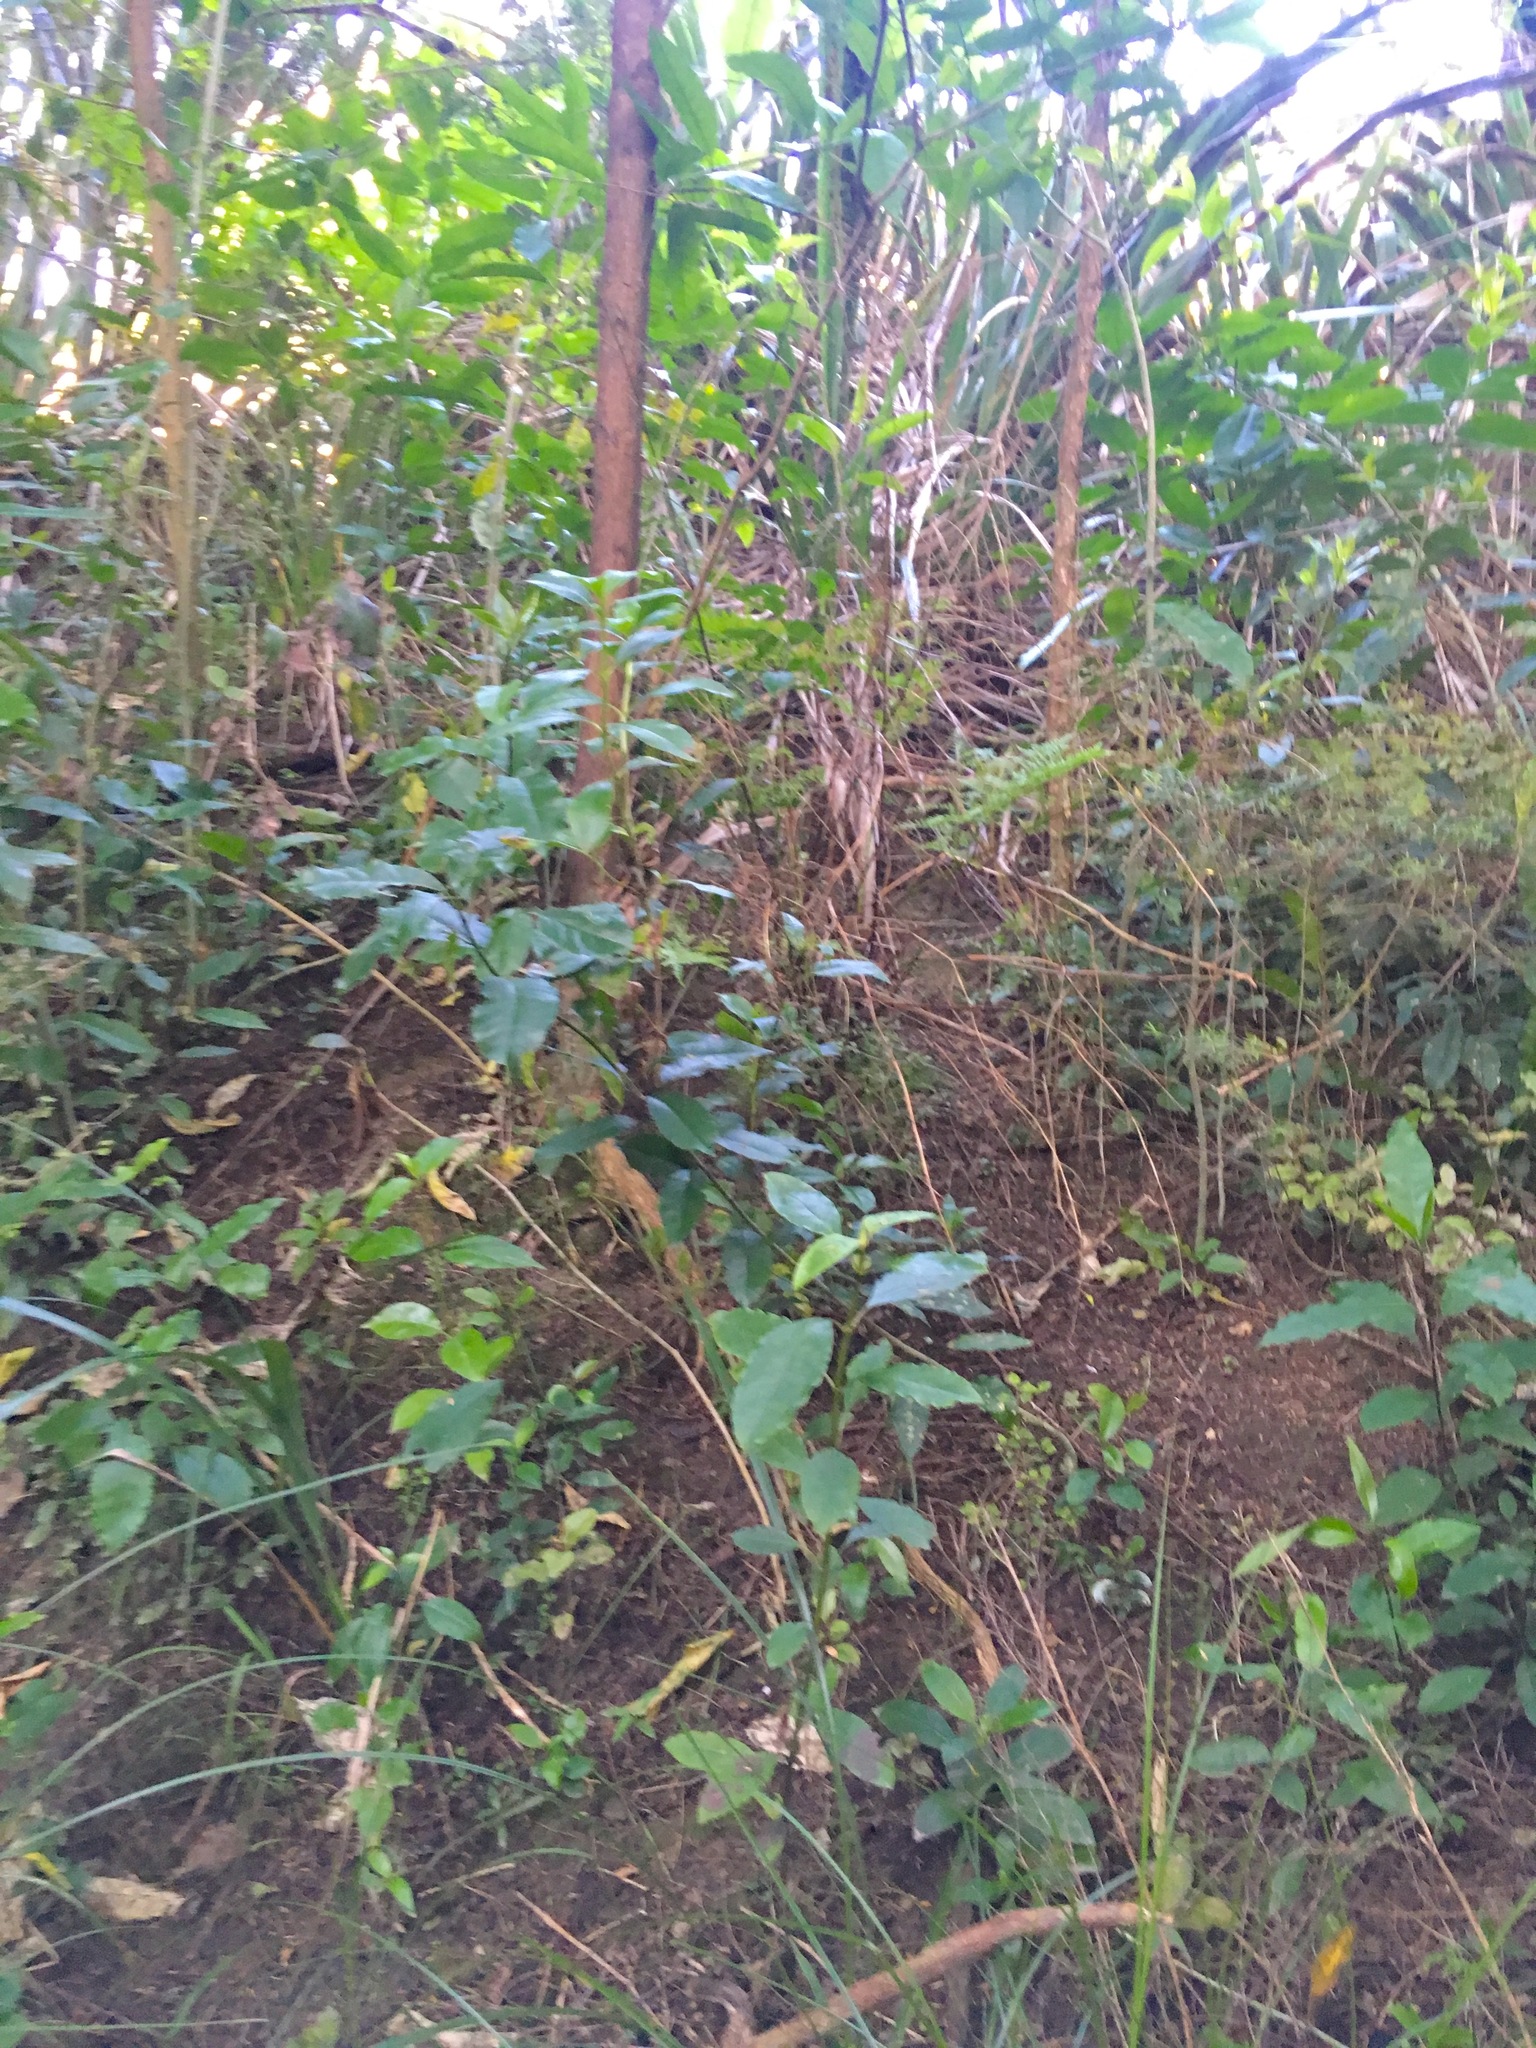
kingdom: Plantae
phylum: Tracheophyta
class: Magnoliopsida
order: Malpighiales
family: Violaceae
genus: Melicytus
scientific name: Melicytus ramiflorus
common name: Mahoe
